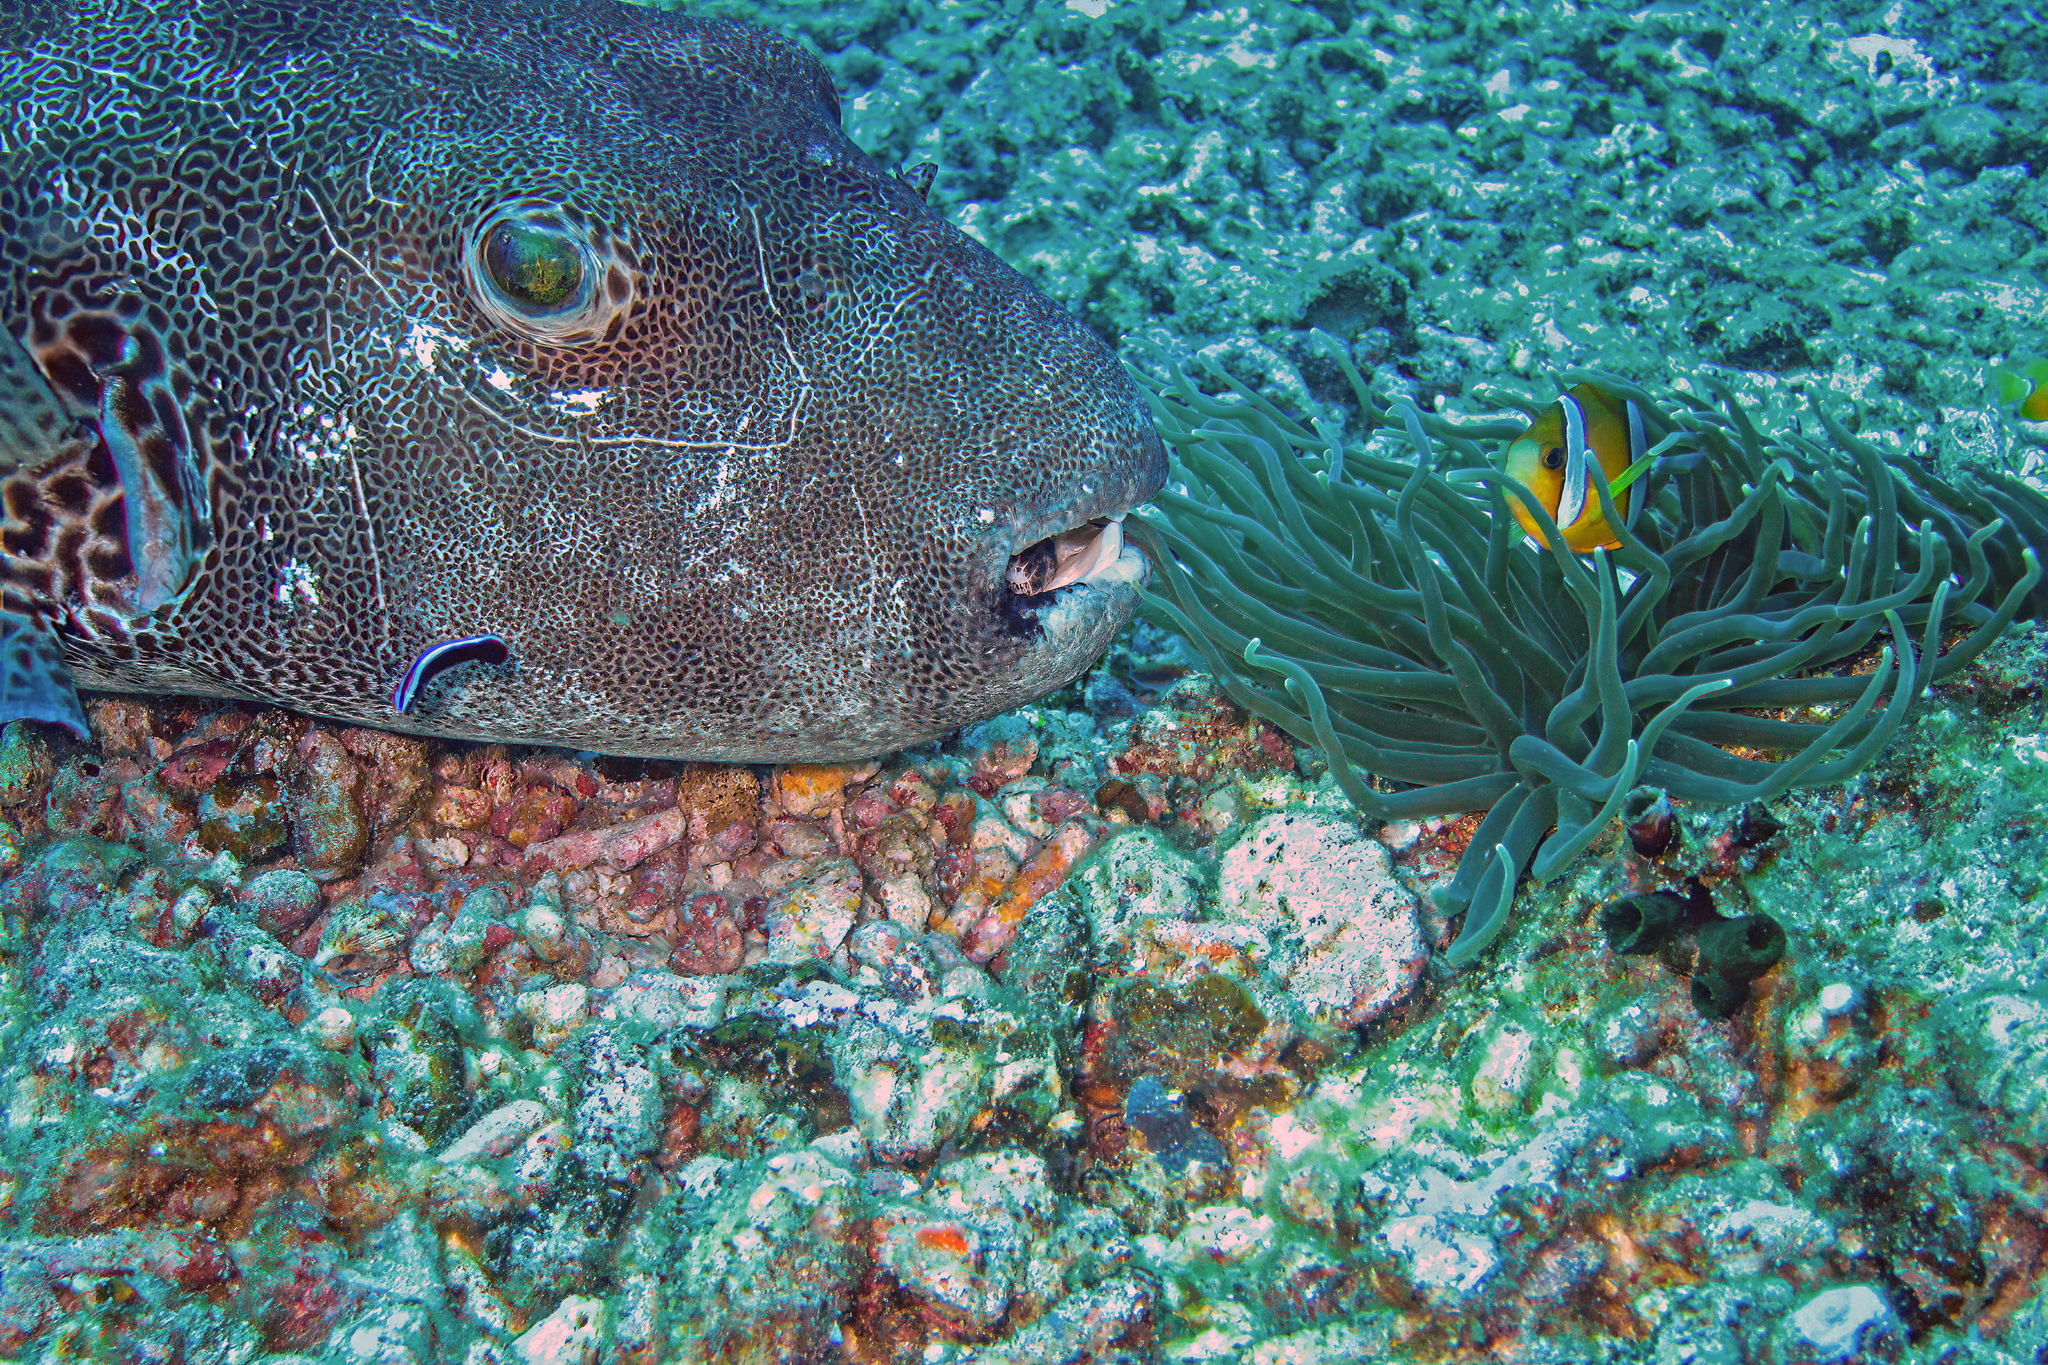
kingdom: Animalia
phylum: Chordata
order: Tetraodontiformes
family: Tetraodontidae
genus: Arothron
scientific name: Arothron stellatus
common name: Star blaasop
